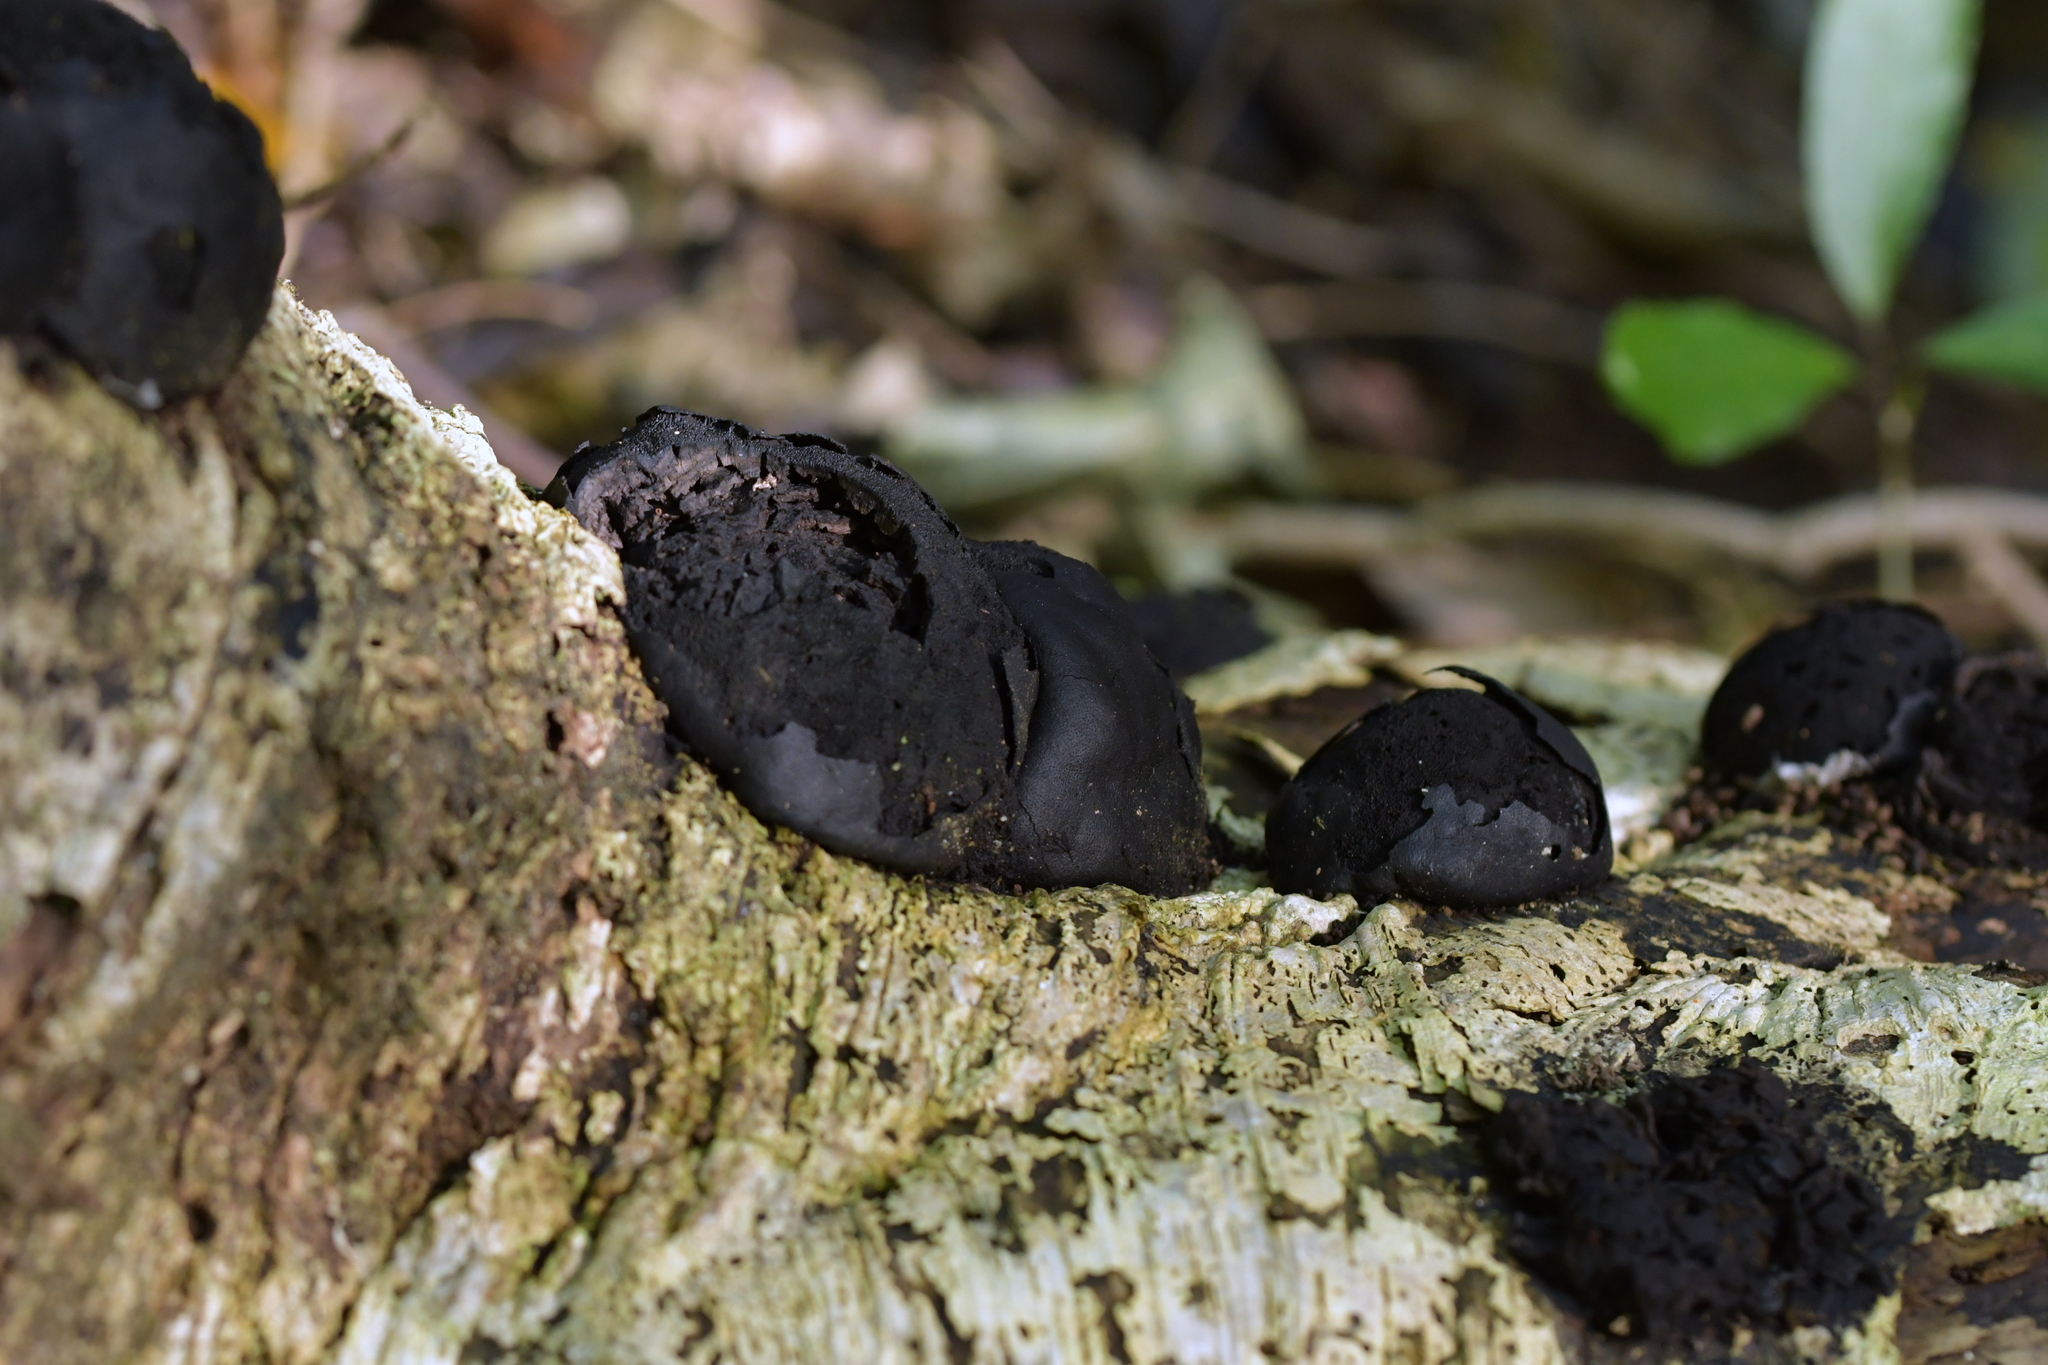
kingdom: Fungi
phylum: Ascomycota
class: Sordariomycetes
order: Xylariales
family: Hypoxylaceae
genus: Daldinia
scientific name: Daldinia
